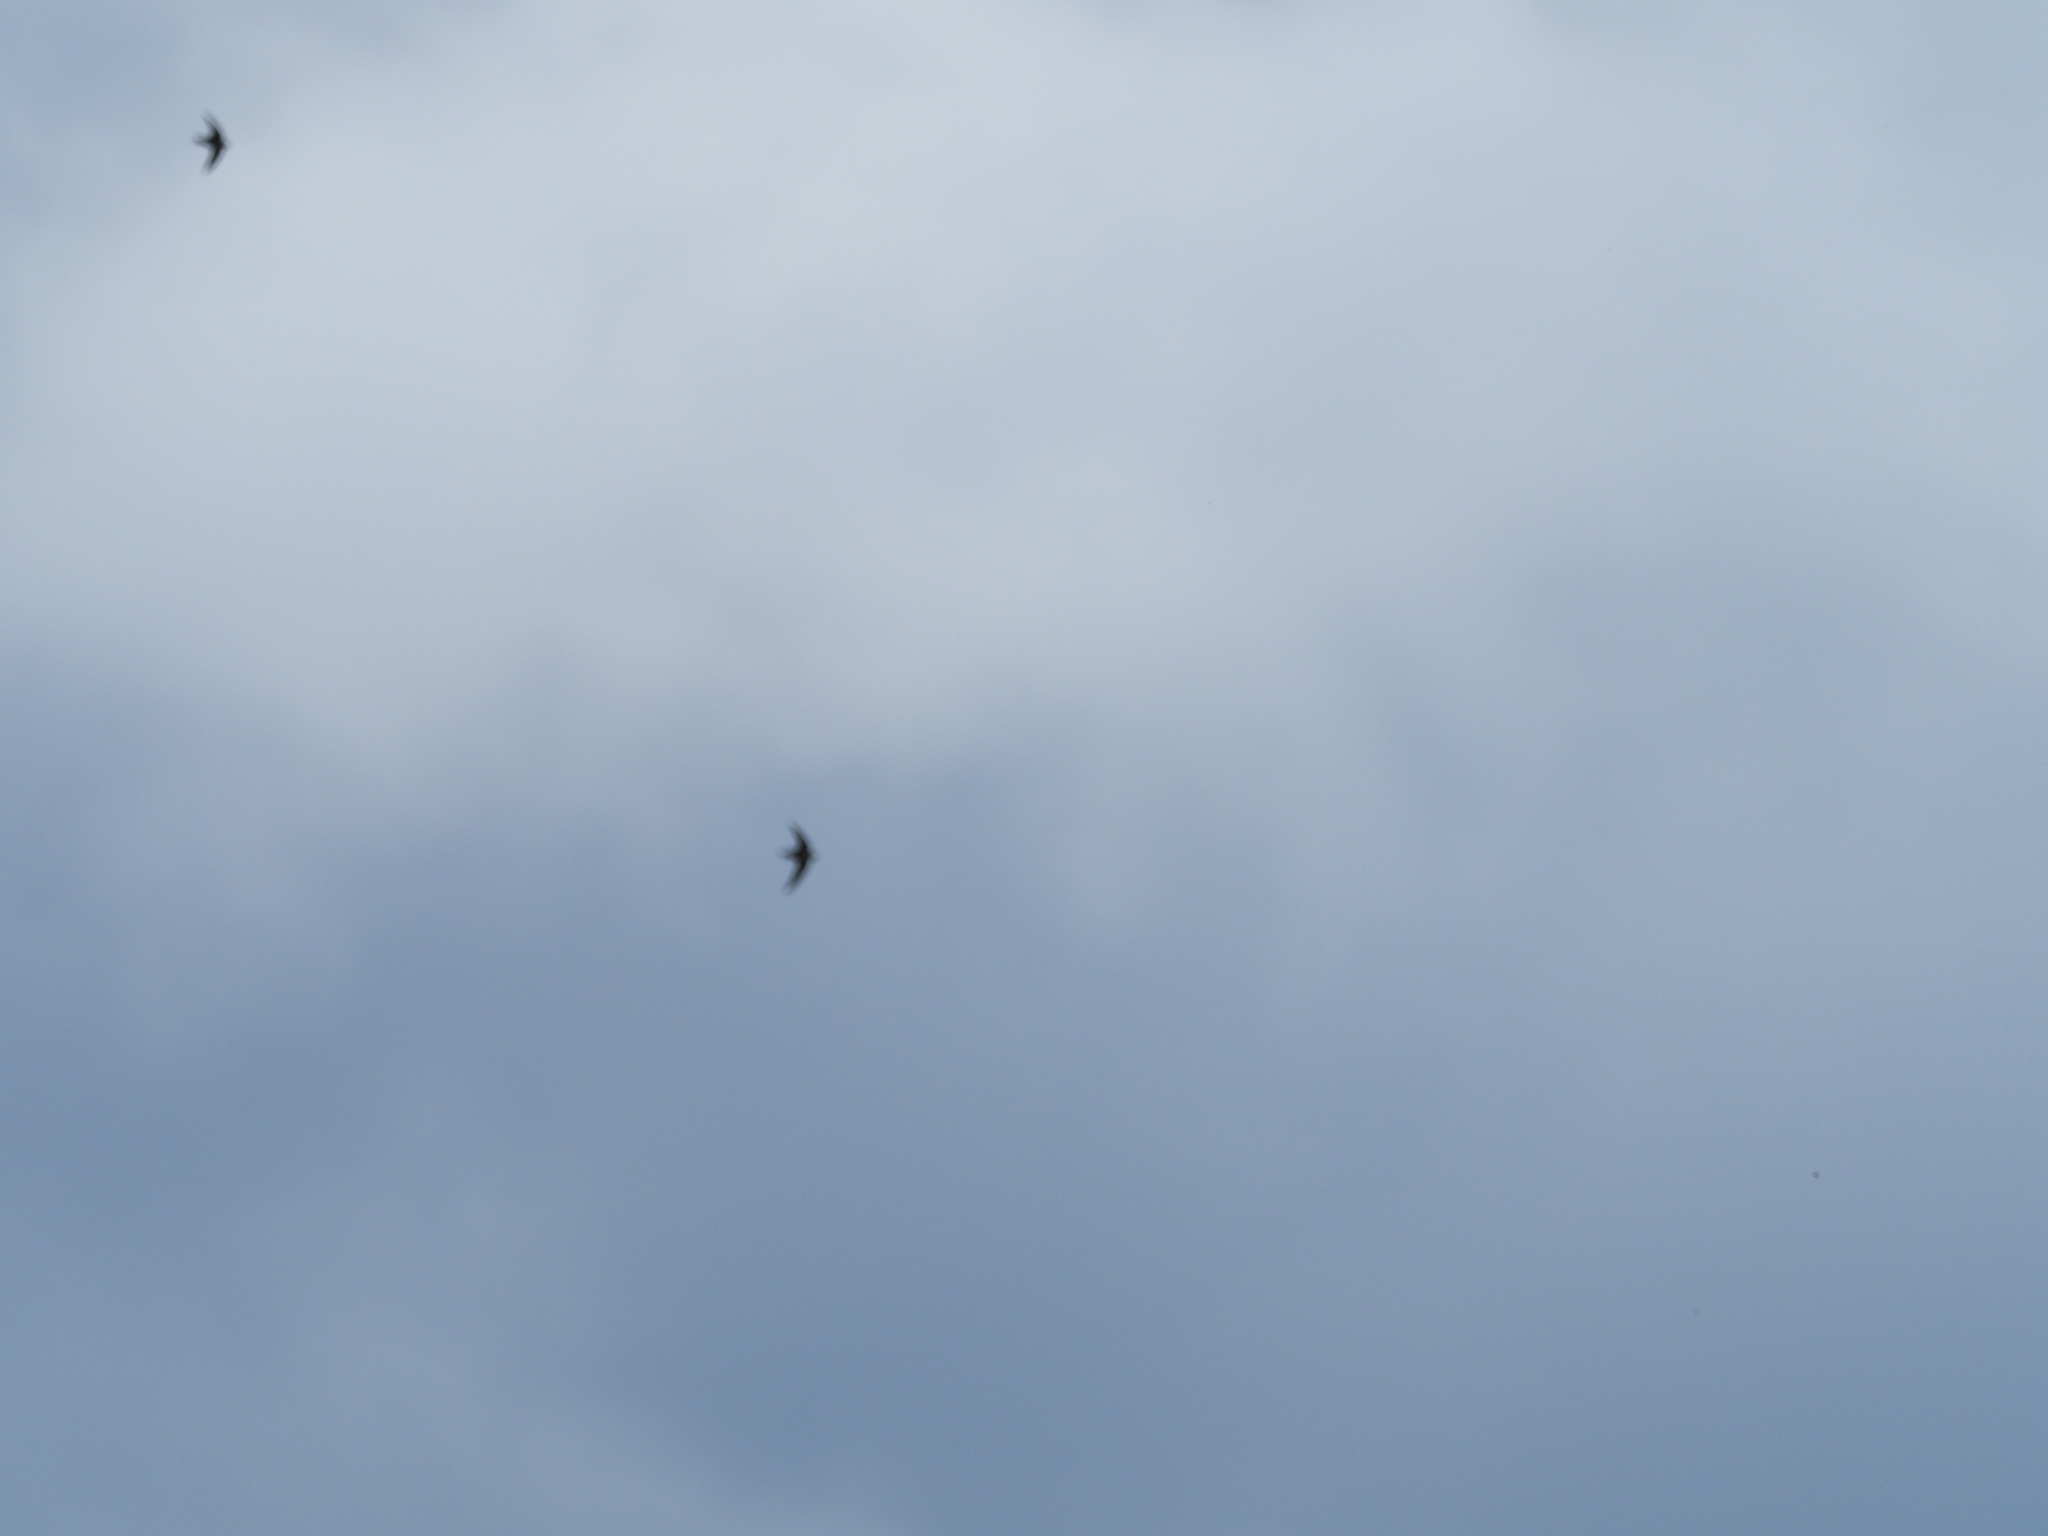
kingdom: Animalia
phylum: Chordata
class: Aves
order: Apodiformes
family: Apodidae
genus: Chaetura
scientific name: Chaetura vauxi
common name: Vaux's swift
